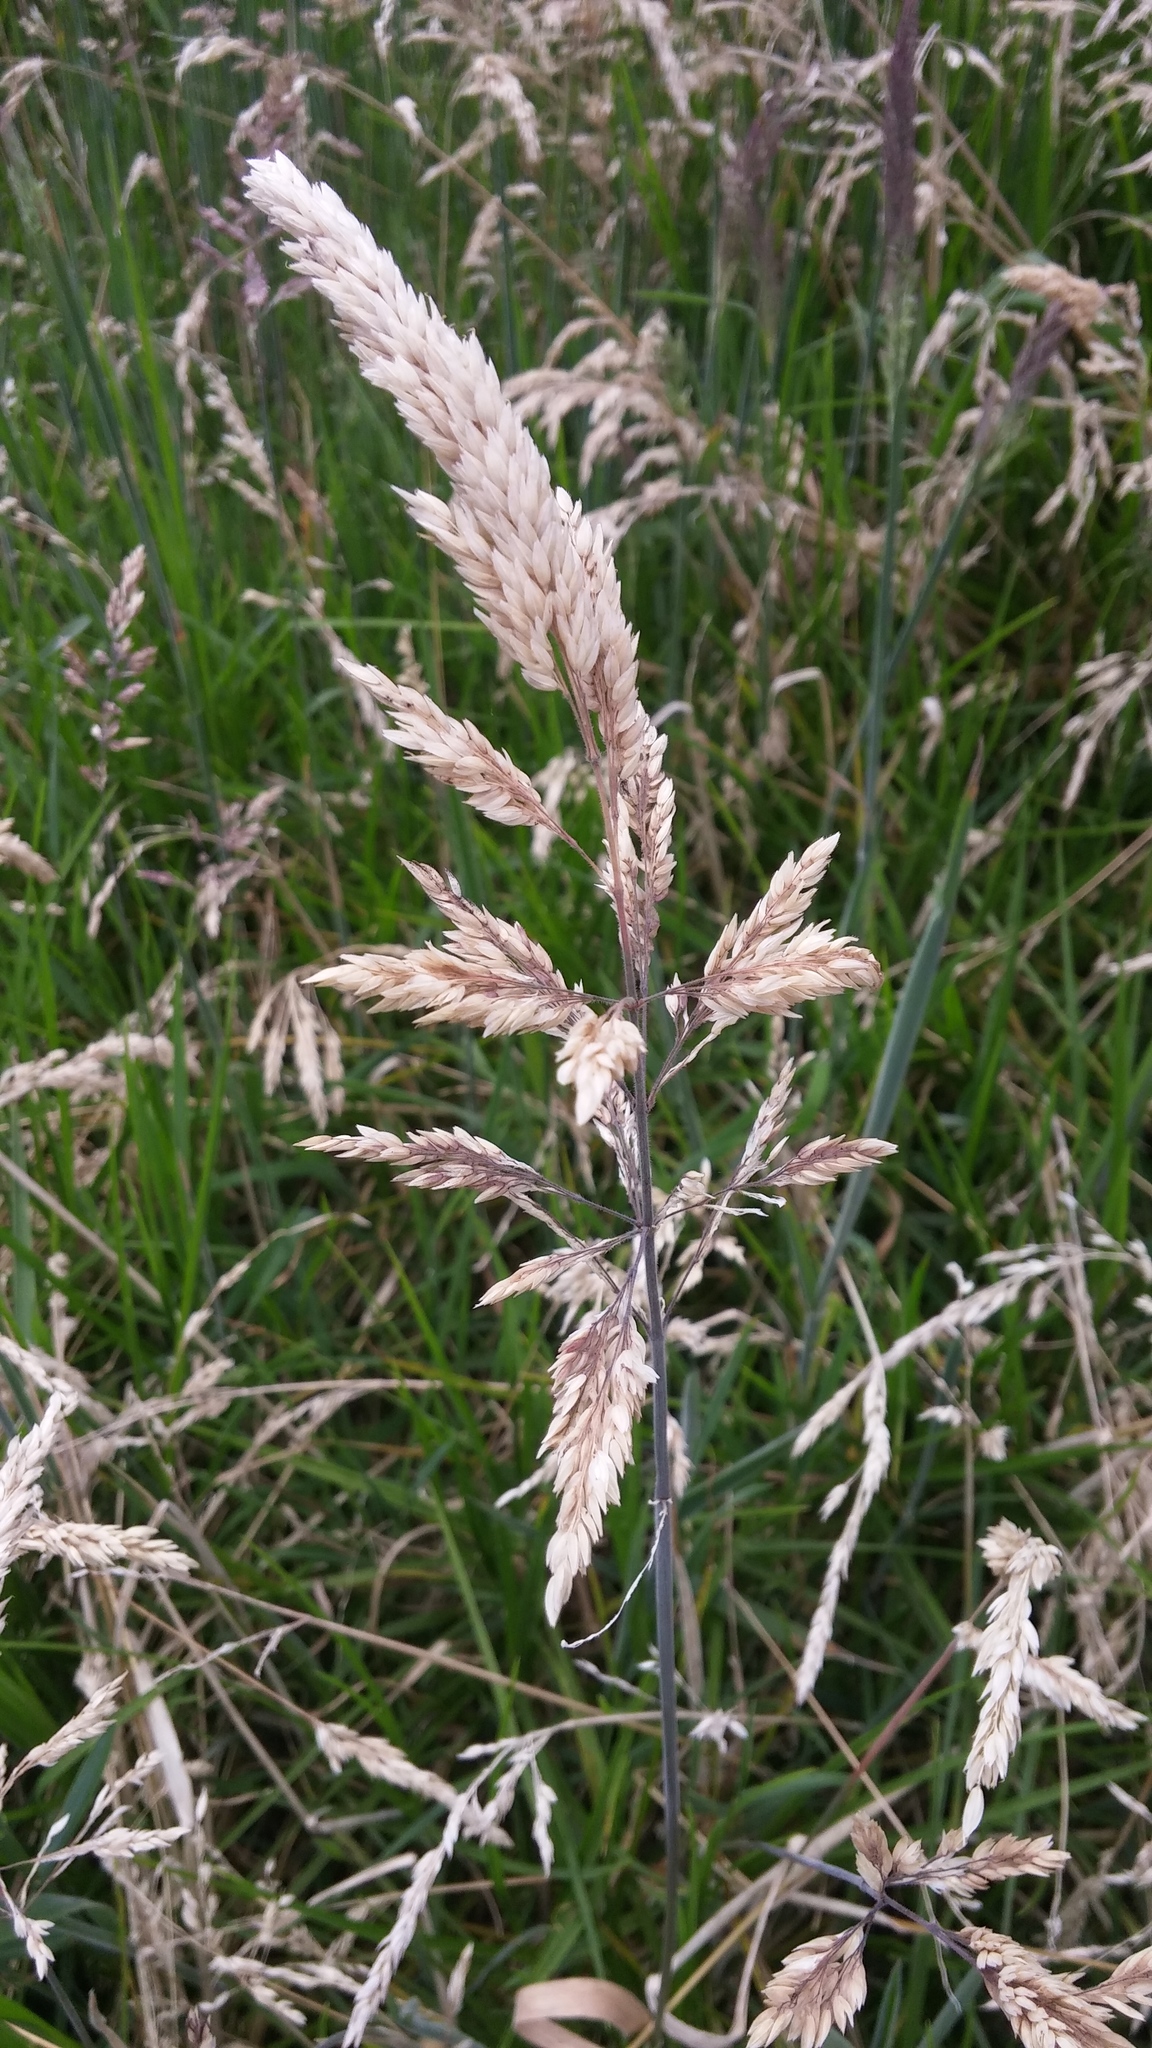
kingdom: Plantae
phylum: Tracheophyta
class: Liliopsida
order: Poales
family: Poaceae
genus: Holcus
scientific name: Holcus lanatus
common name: Yorkshire-fog
